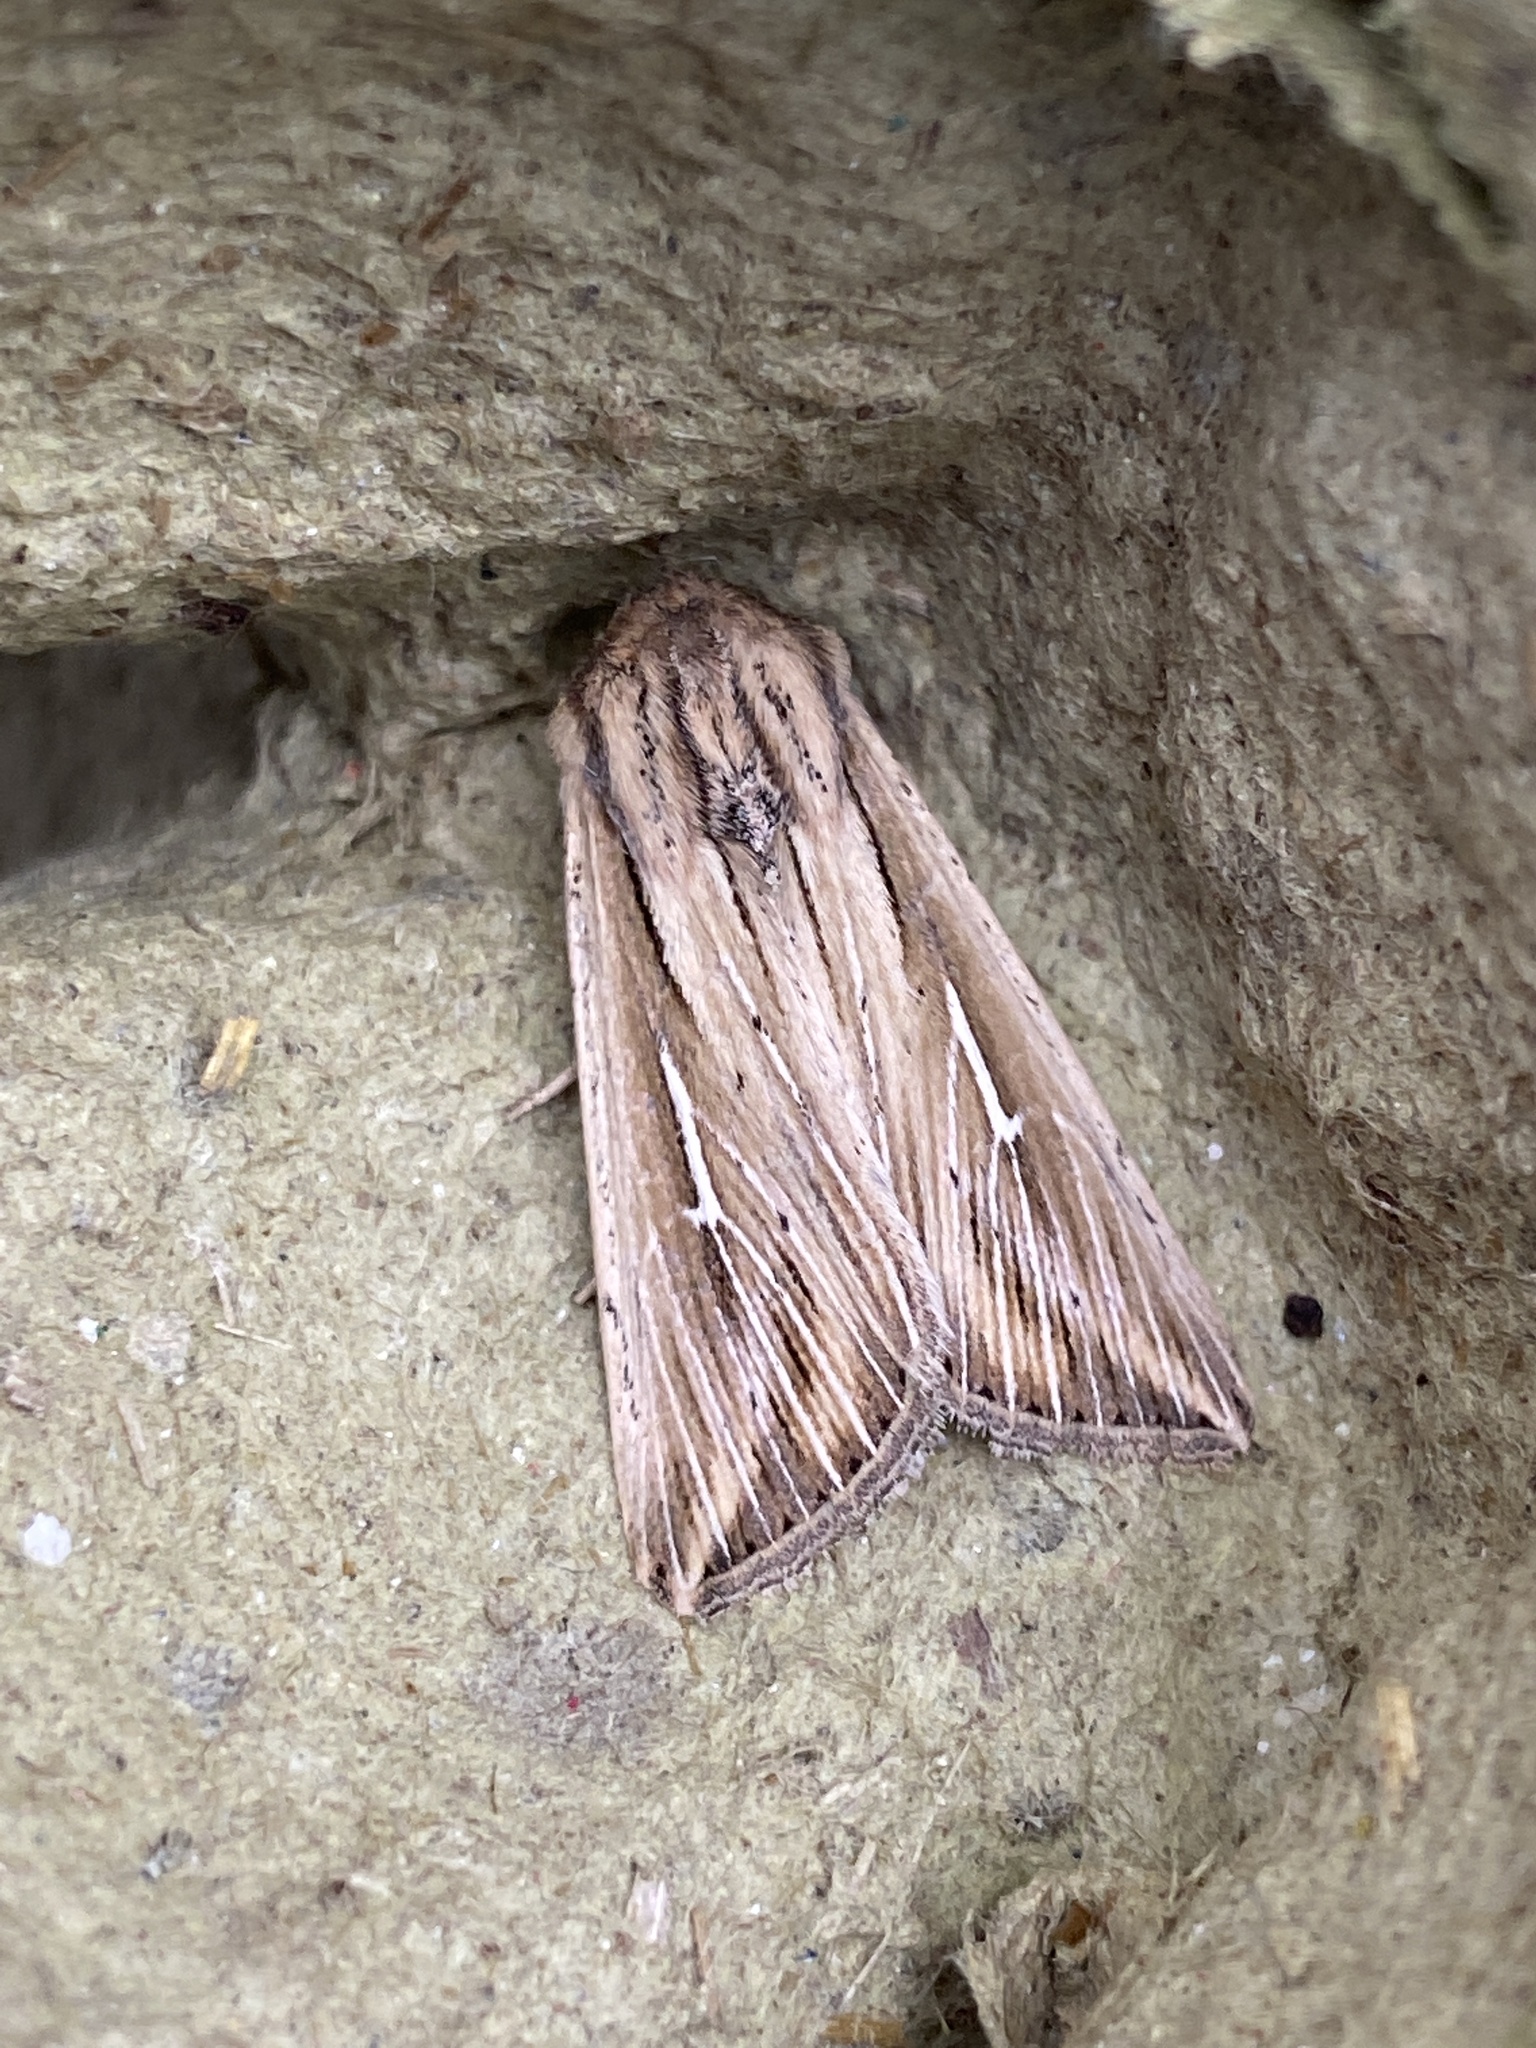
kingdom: Animalia
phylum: Arthropoda
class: Insecta
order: Lepidoptera
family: Noctuidae
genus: Mythimna
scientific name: Mythimna l-album
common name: L-album wainscot
